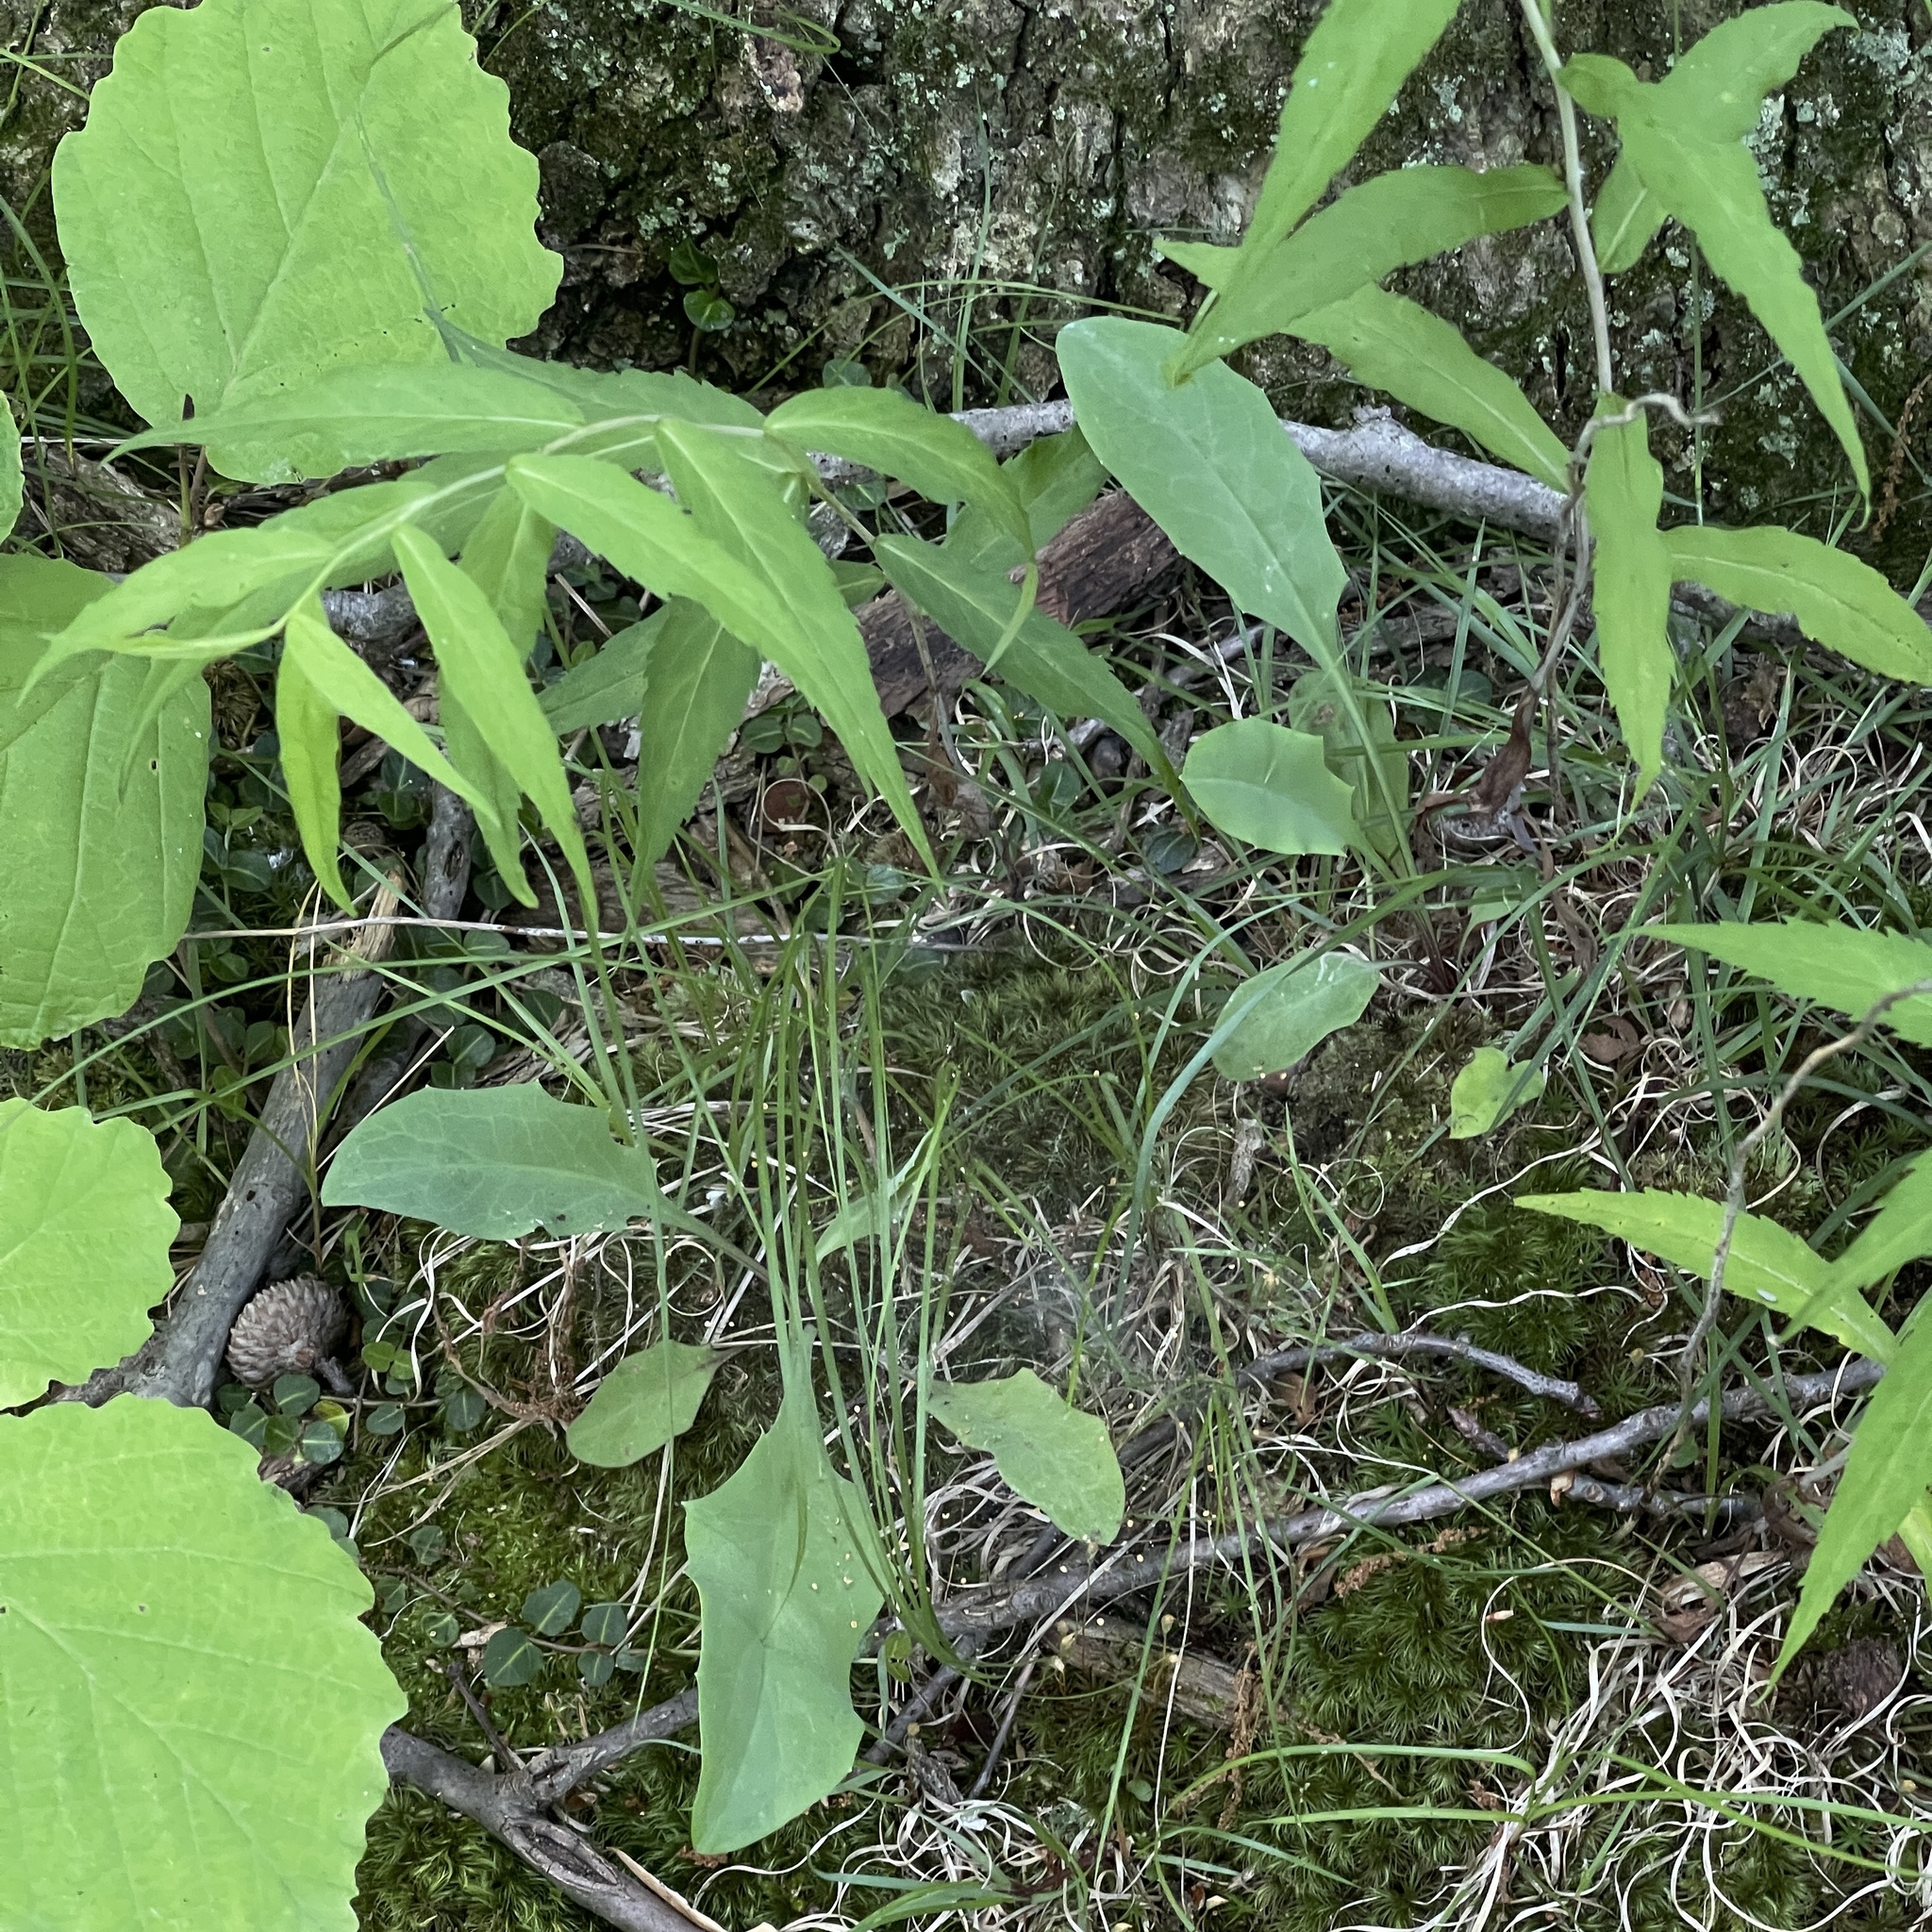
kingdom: Plantae
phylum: Tracheophyta
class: Magnoliopsida
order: Asterales
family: Asteraceae
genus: Krigia
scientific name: Krigia biflora
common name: Orange dwarf-dandelion
